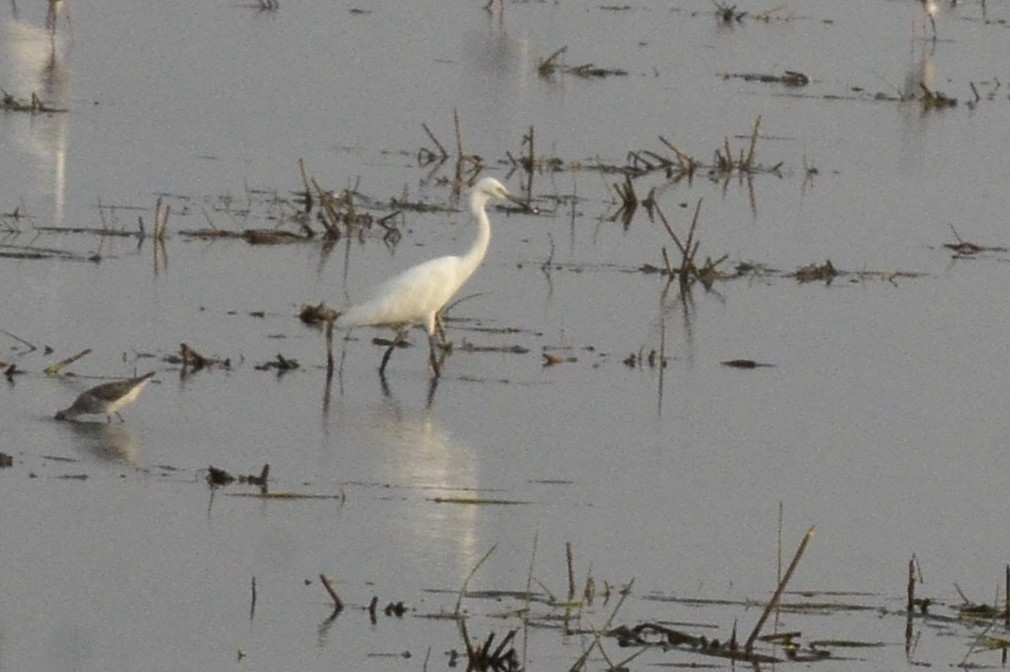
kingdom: Animalia
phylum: Chordata
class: Aves
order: Pelecaniformes
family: Ardeidae
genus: Egretta
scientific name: Egretta garzetta
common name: Little egret
